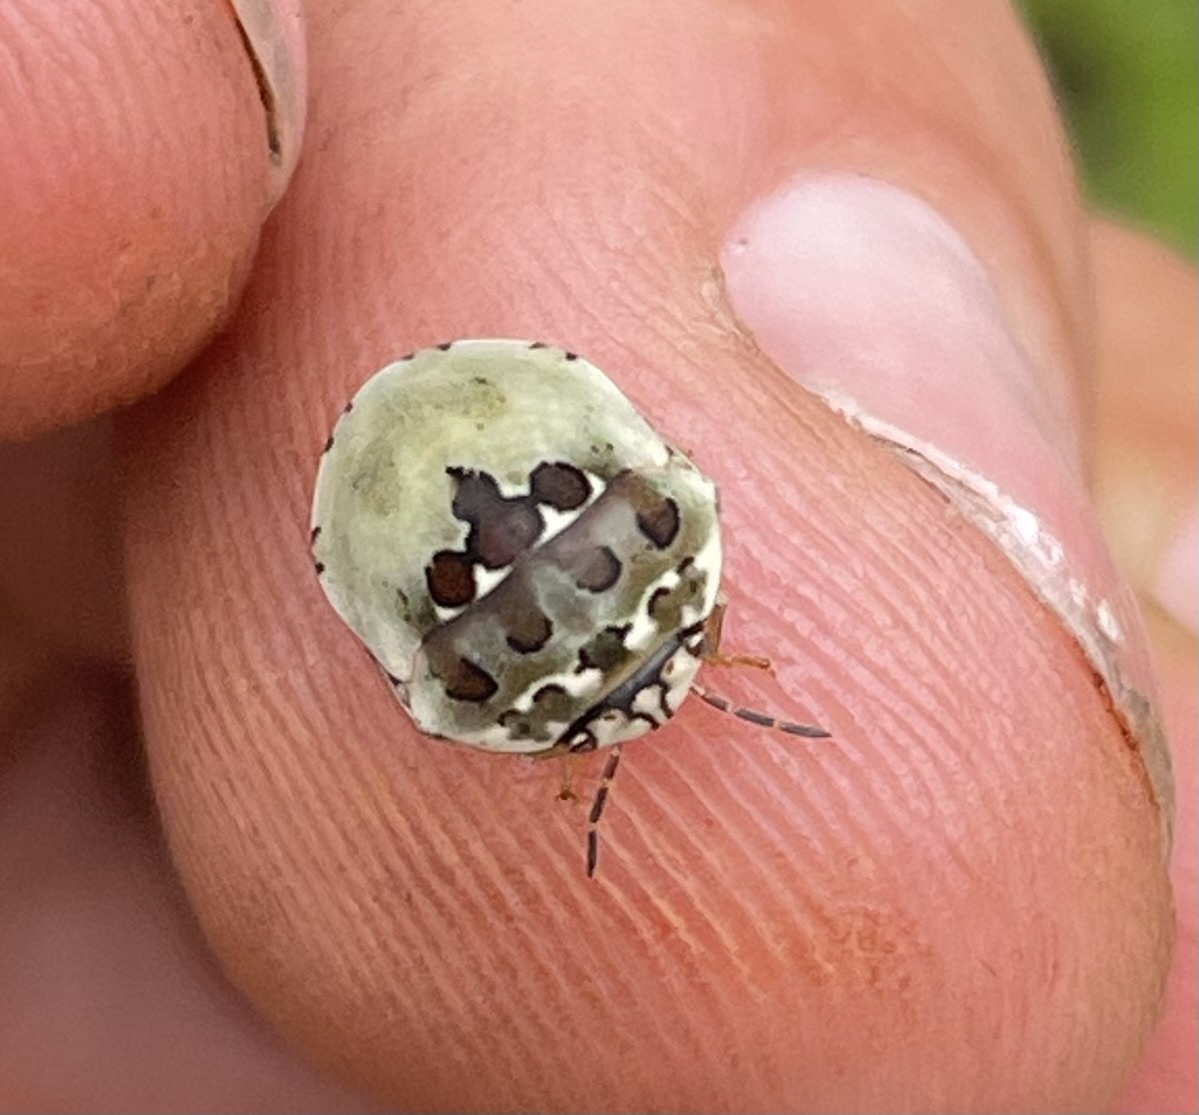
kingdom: Animalia
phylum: Arthropoda
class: Insecta
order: Hemiptera
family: Scutelleridae
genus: Sphaerocoris
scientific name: Sphaerocoris
